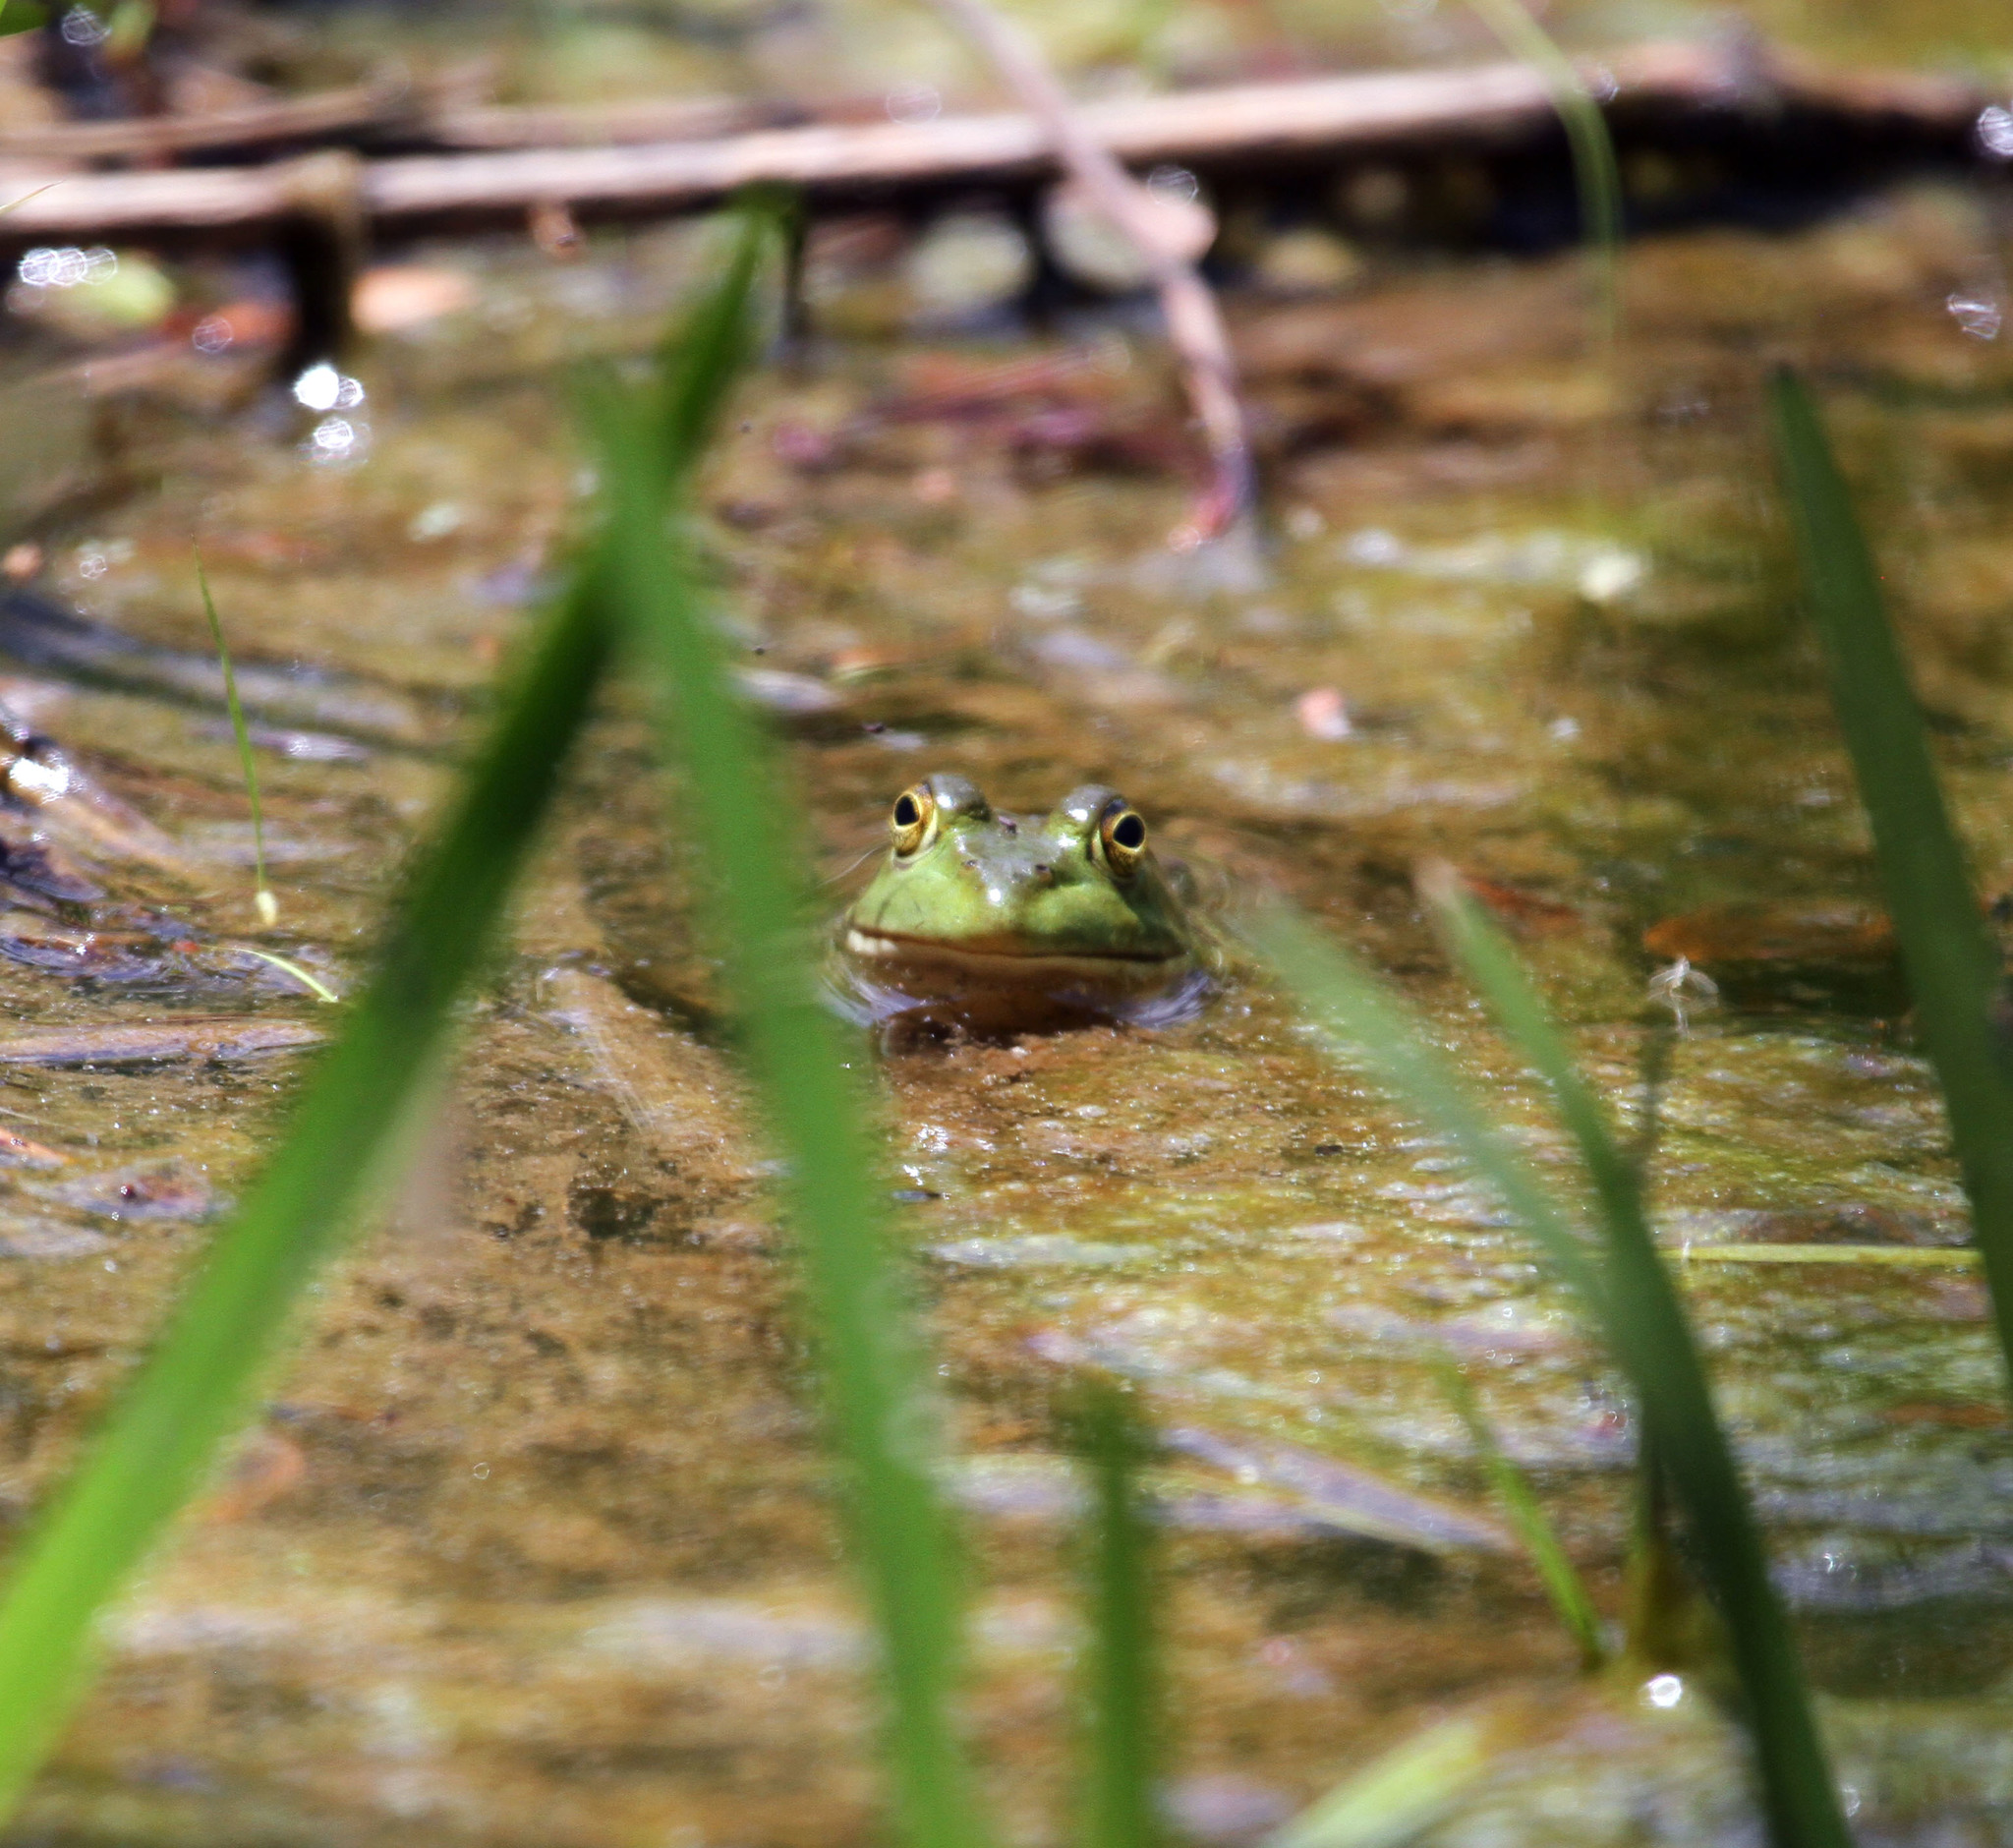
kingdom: Animalia
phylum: Chordata
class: Amphibia
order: Anura
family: Ranidae
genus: Lithobates
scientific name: Lithobates catesbeianus
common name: American bullfrog
